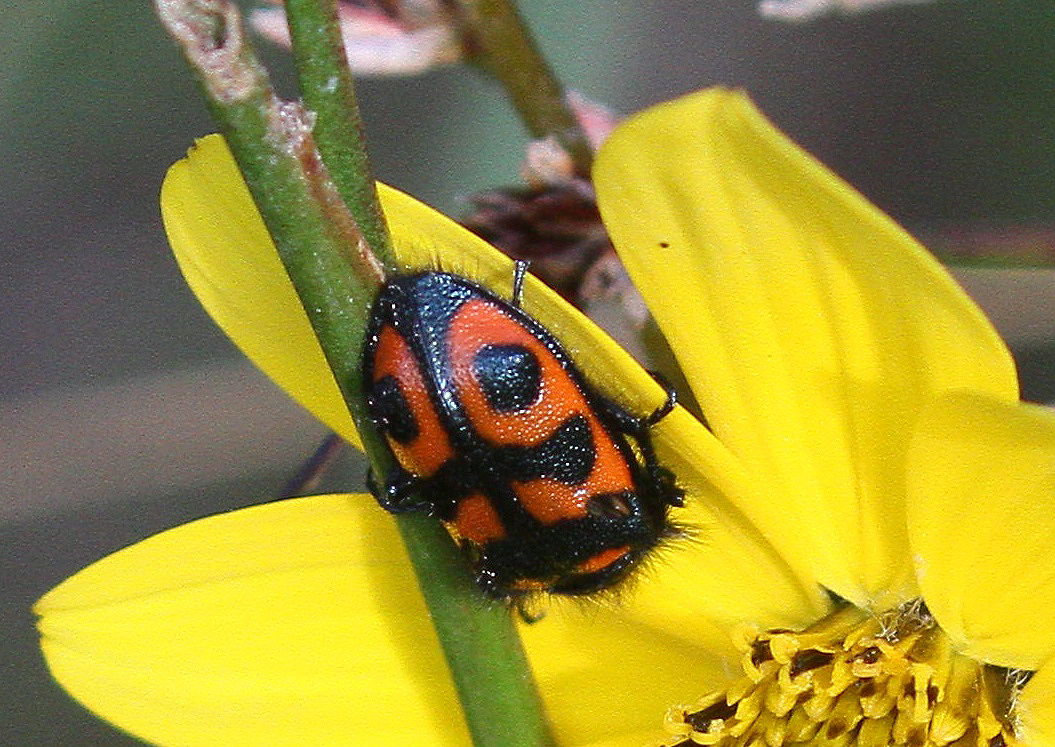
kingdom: Animalia
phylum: Arthropoda
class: Insecta
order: Coleoptera
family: Melyridae
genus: Astylus
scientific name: Astylus
